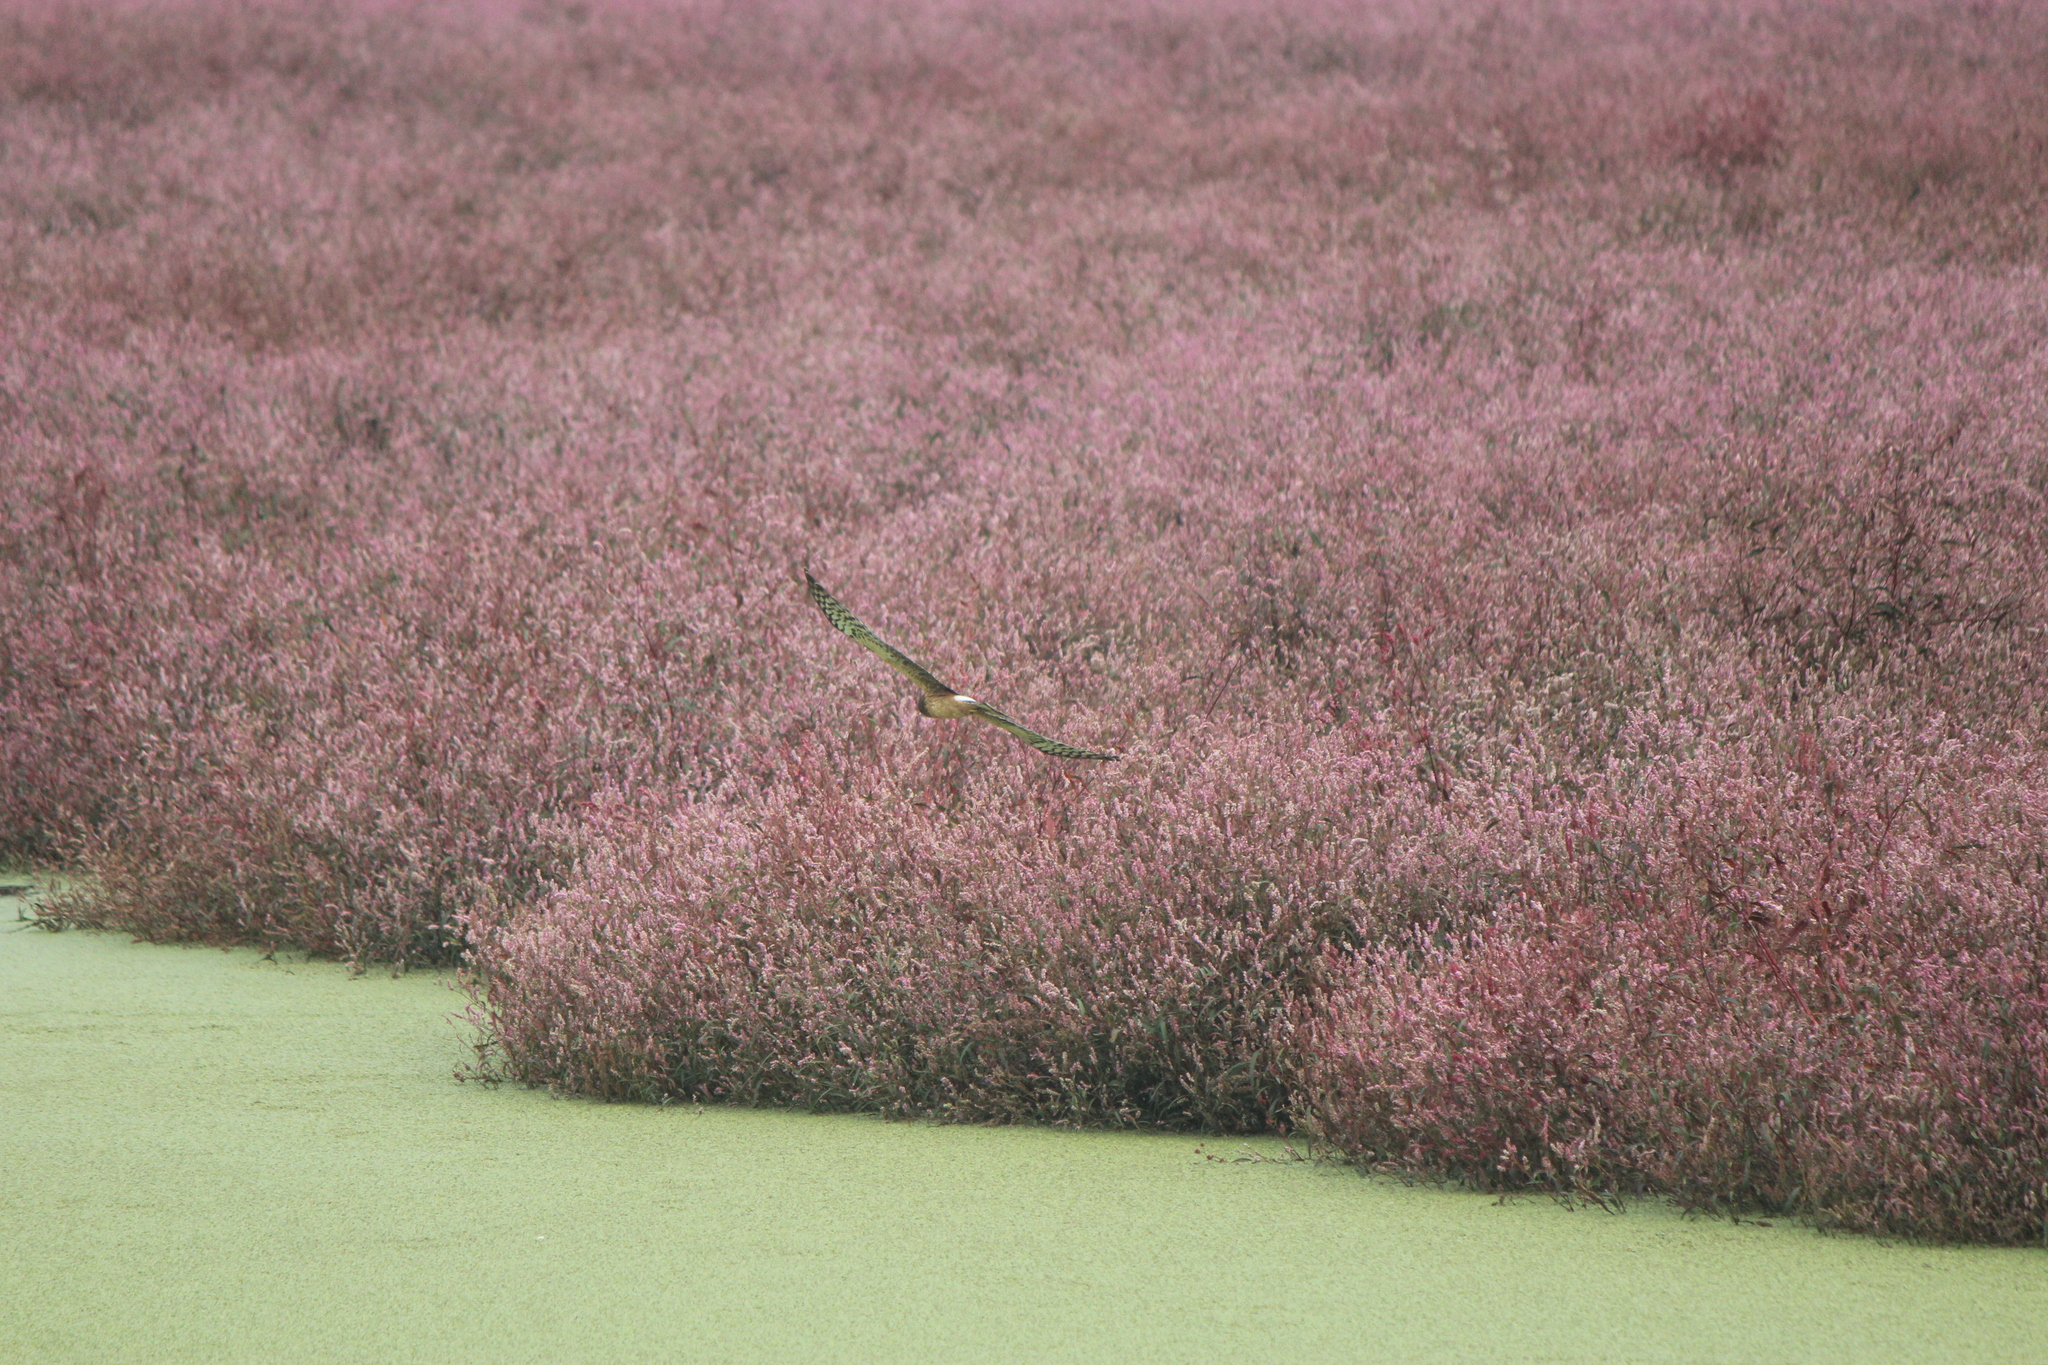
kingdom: Animalia
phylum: Chordata
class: Aves
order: Accipitriformes
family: Accipitridae
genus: Circus
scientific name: Circus cyaneus
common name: Hen harrier
